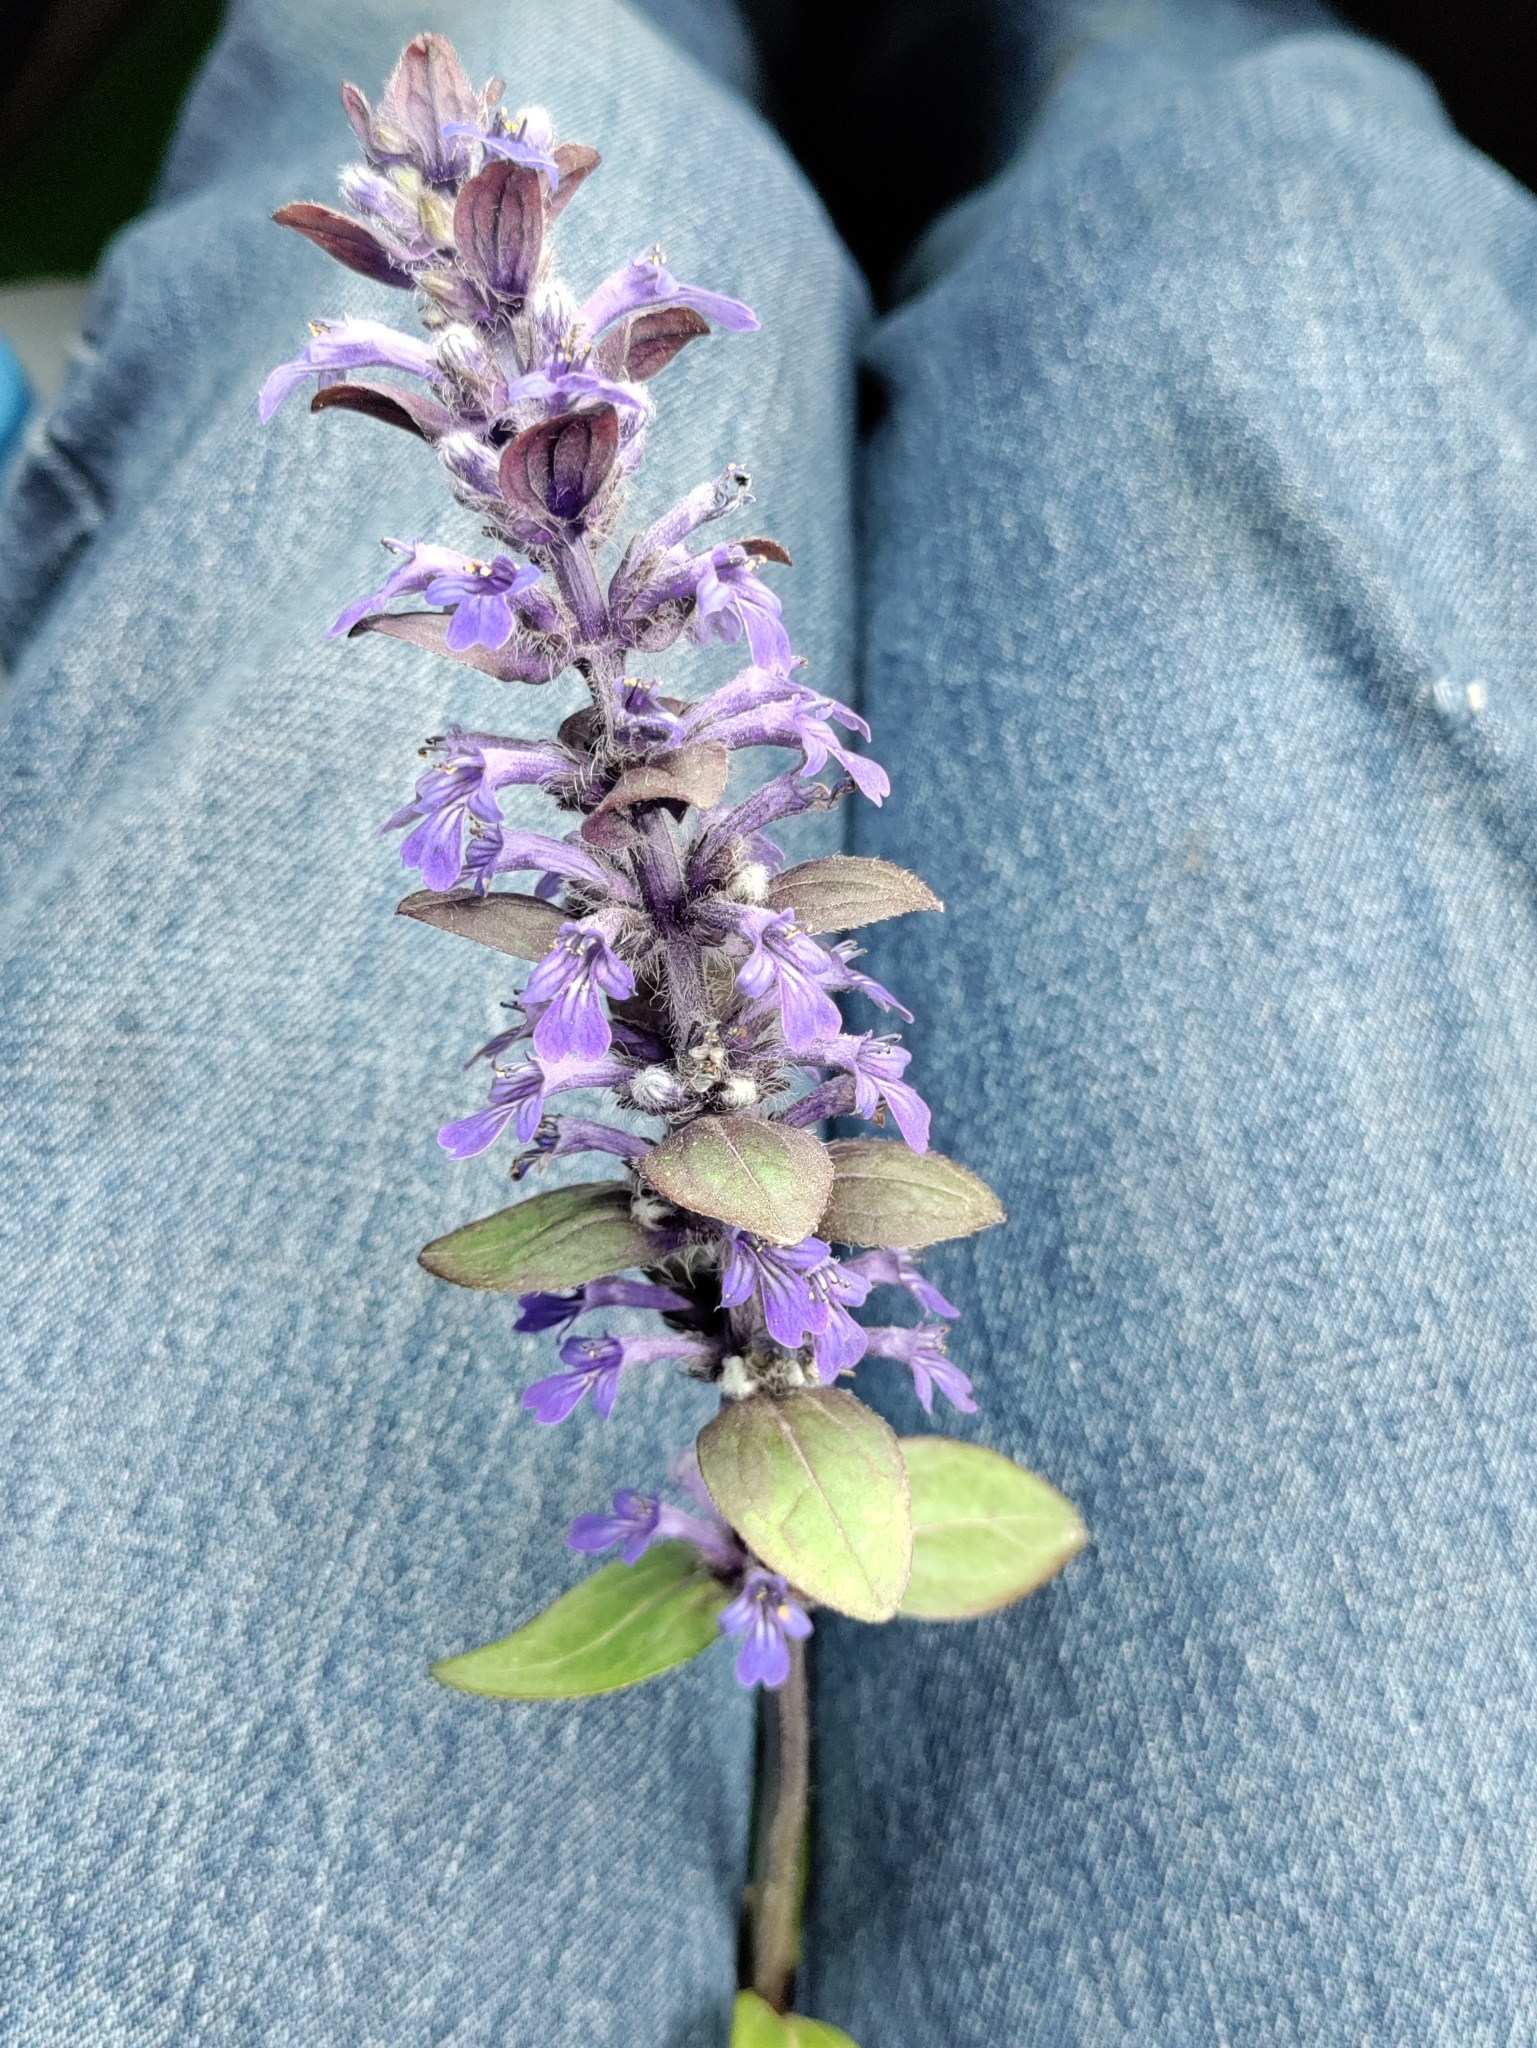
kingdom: Plantae
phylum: Tracheophyta
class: Magnoliopsida
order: Lamiales
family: Lamiaceae
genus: Ajuga
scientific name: Ajuga reptans
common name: Bugle
